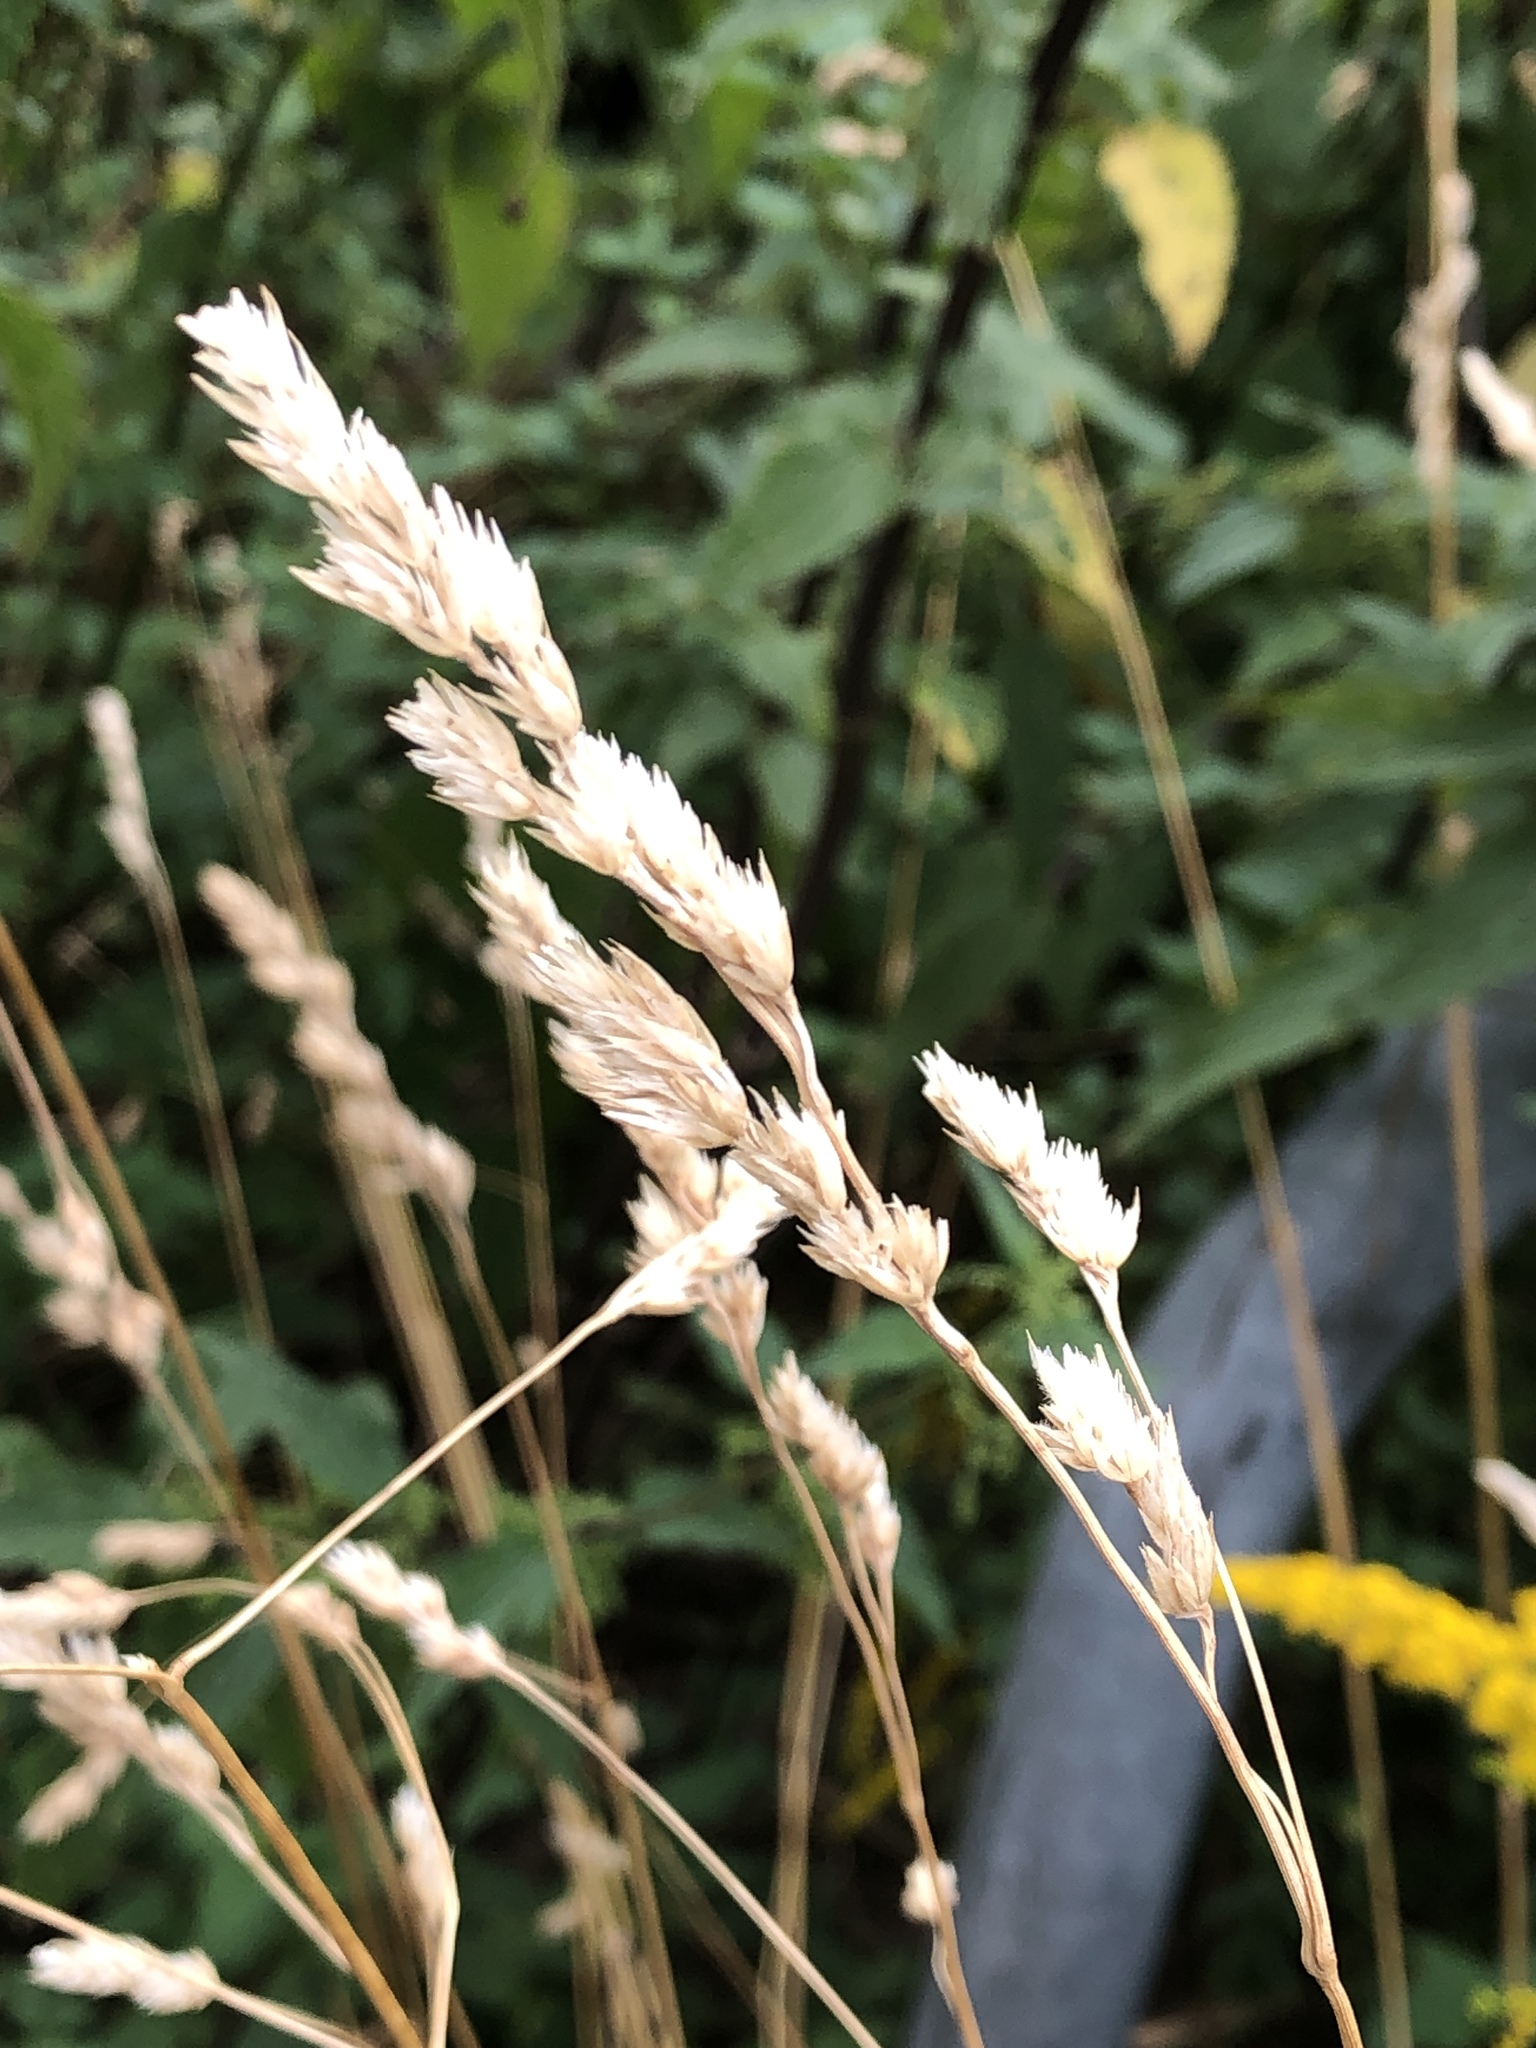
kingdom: Plantae
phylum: Tracheophyta
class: Liliopsida
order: Poales
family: Poaceae
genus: Dactylis
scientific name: Dactylis glomerata
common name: Orchardgrass
